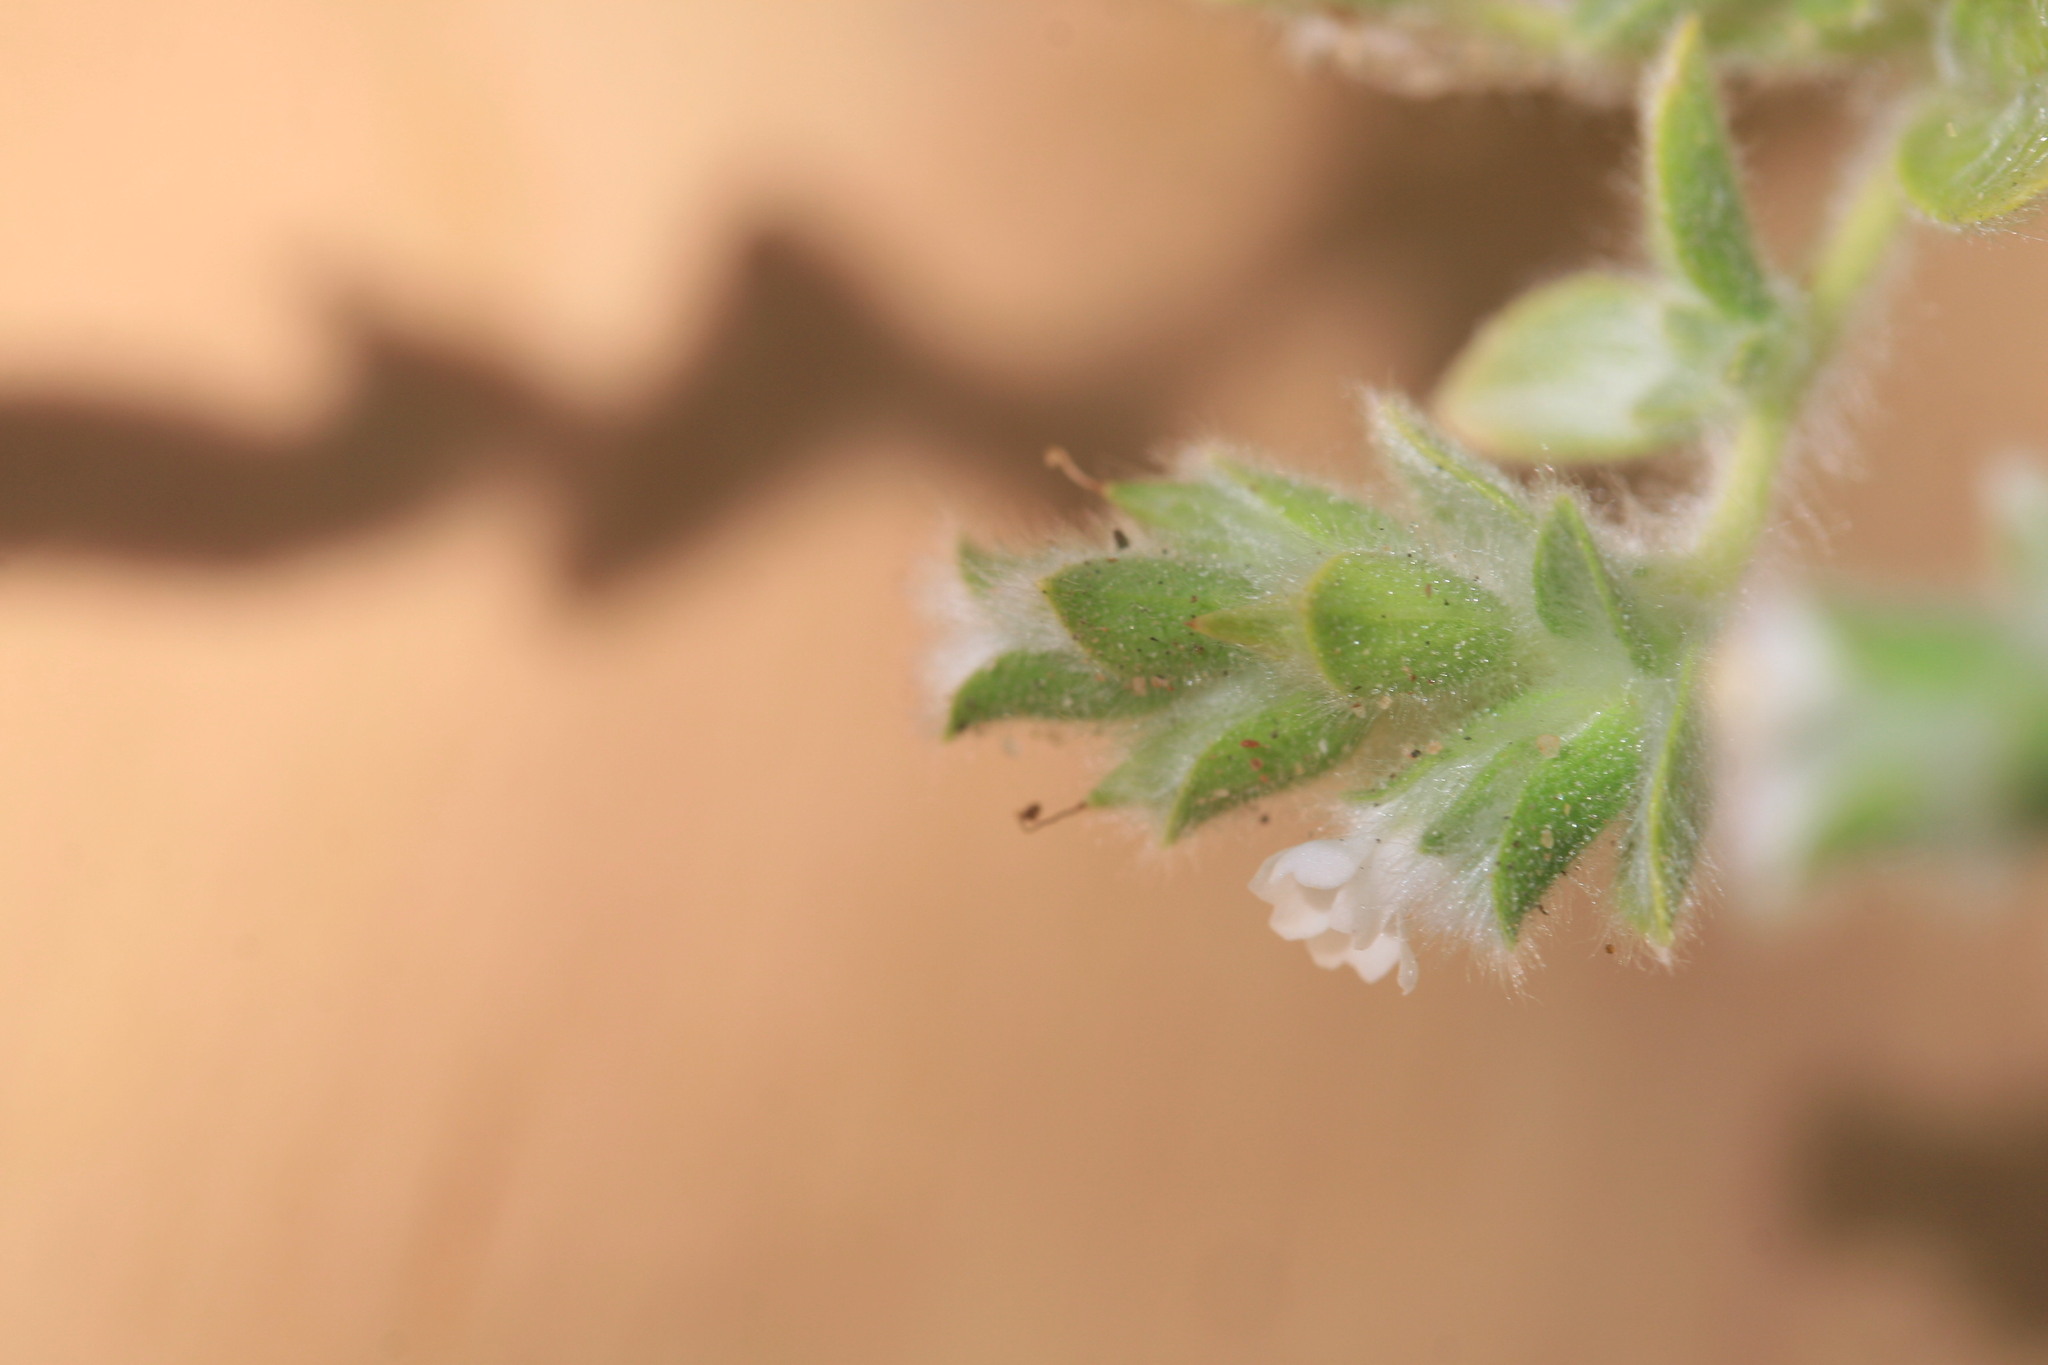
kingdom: Plantae
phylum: Tracheophyta
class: Magnoliopsida
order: Lamiales
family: Acanthaceae
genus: Nelsonia
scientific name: Nelsonia canescens
